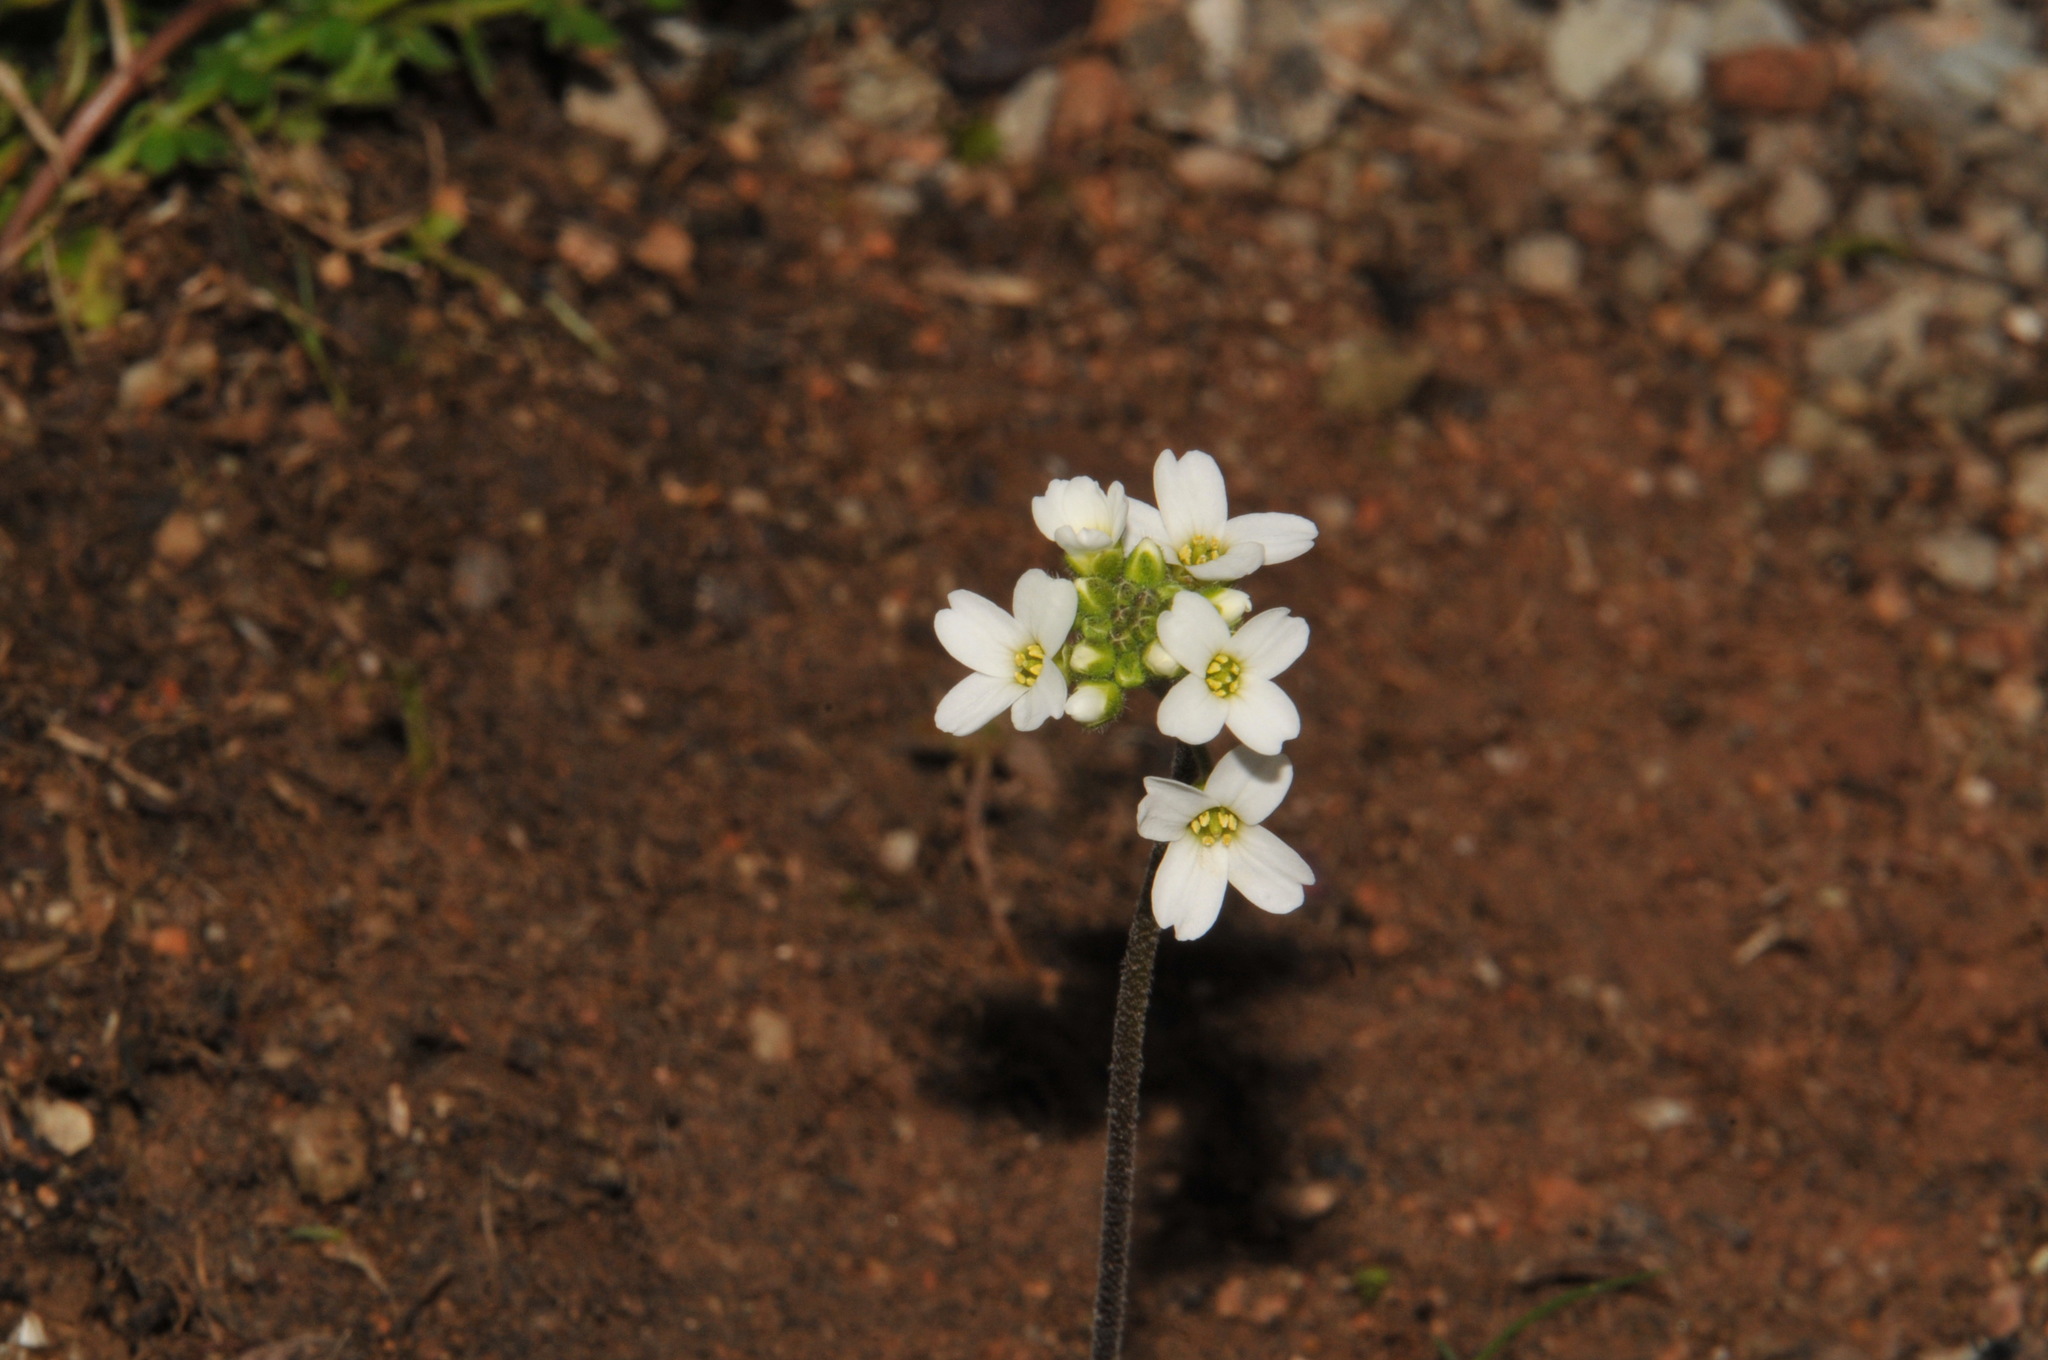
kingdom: Plantae
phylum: Tracheophyta
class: Magnoliopsida
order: Brassicales
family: Brassicaceae
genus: Tomostima
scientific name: Tomostima cuneifolia
